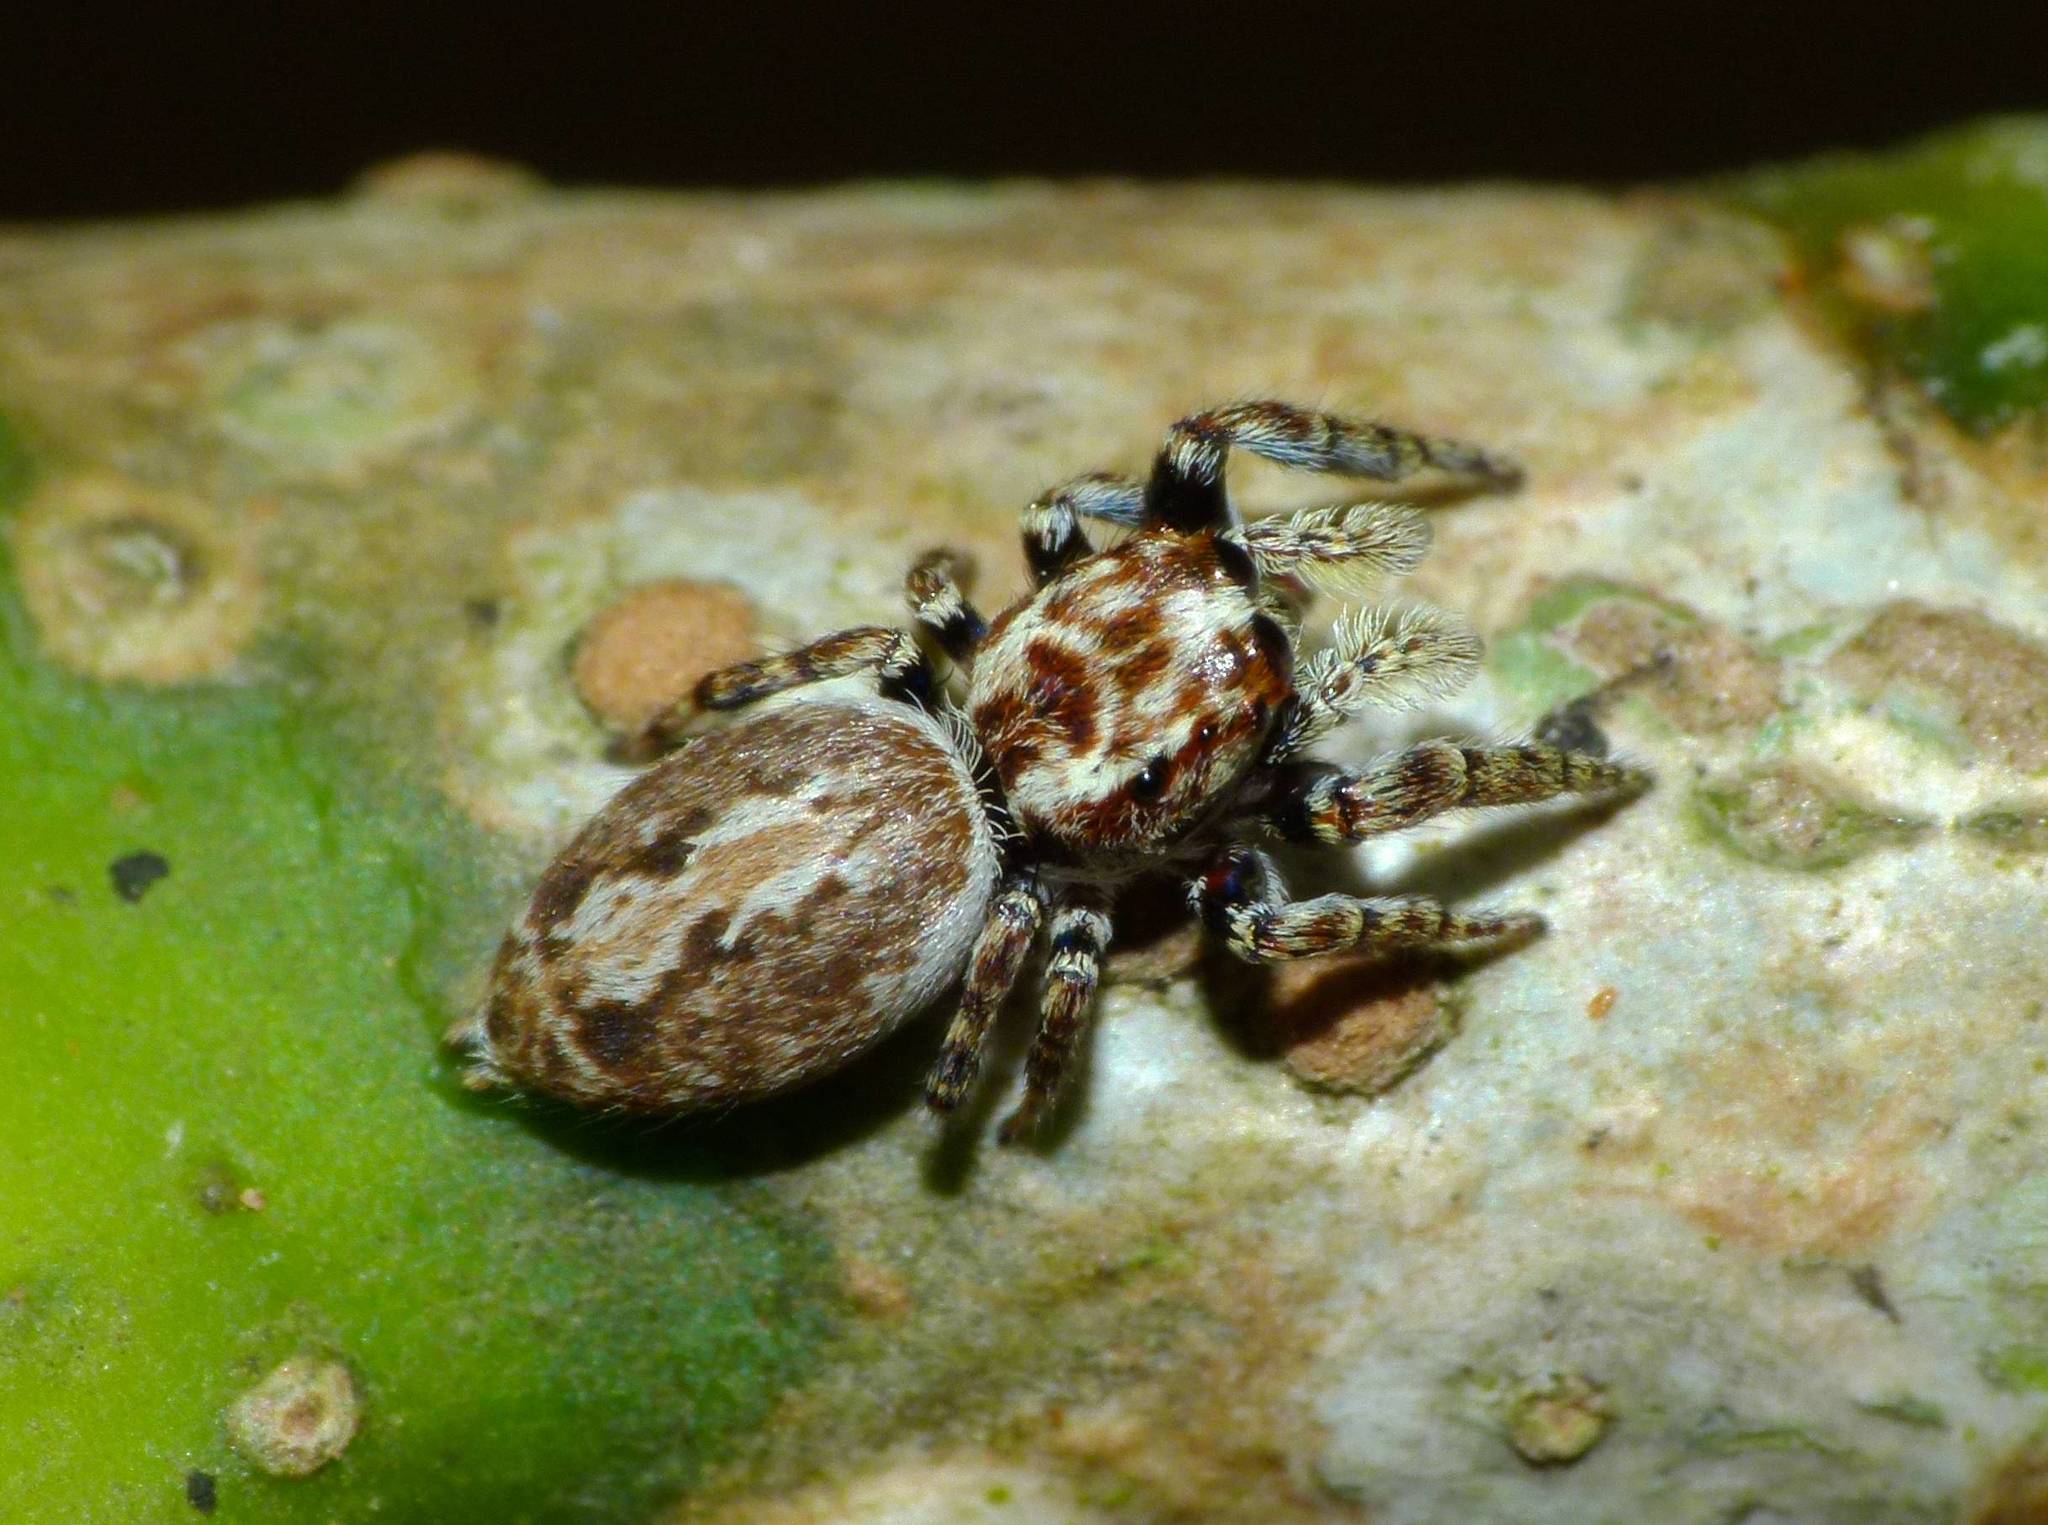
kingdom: Animalia
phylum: Arthropoda
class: Arachnida
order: Araneae
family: Salticidae
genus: Paraphilaeus
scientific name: Paraphilaeus daemeli
